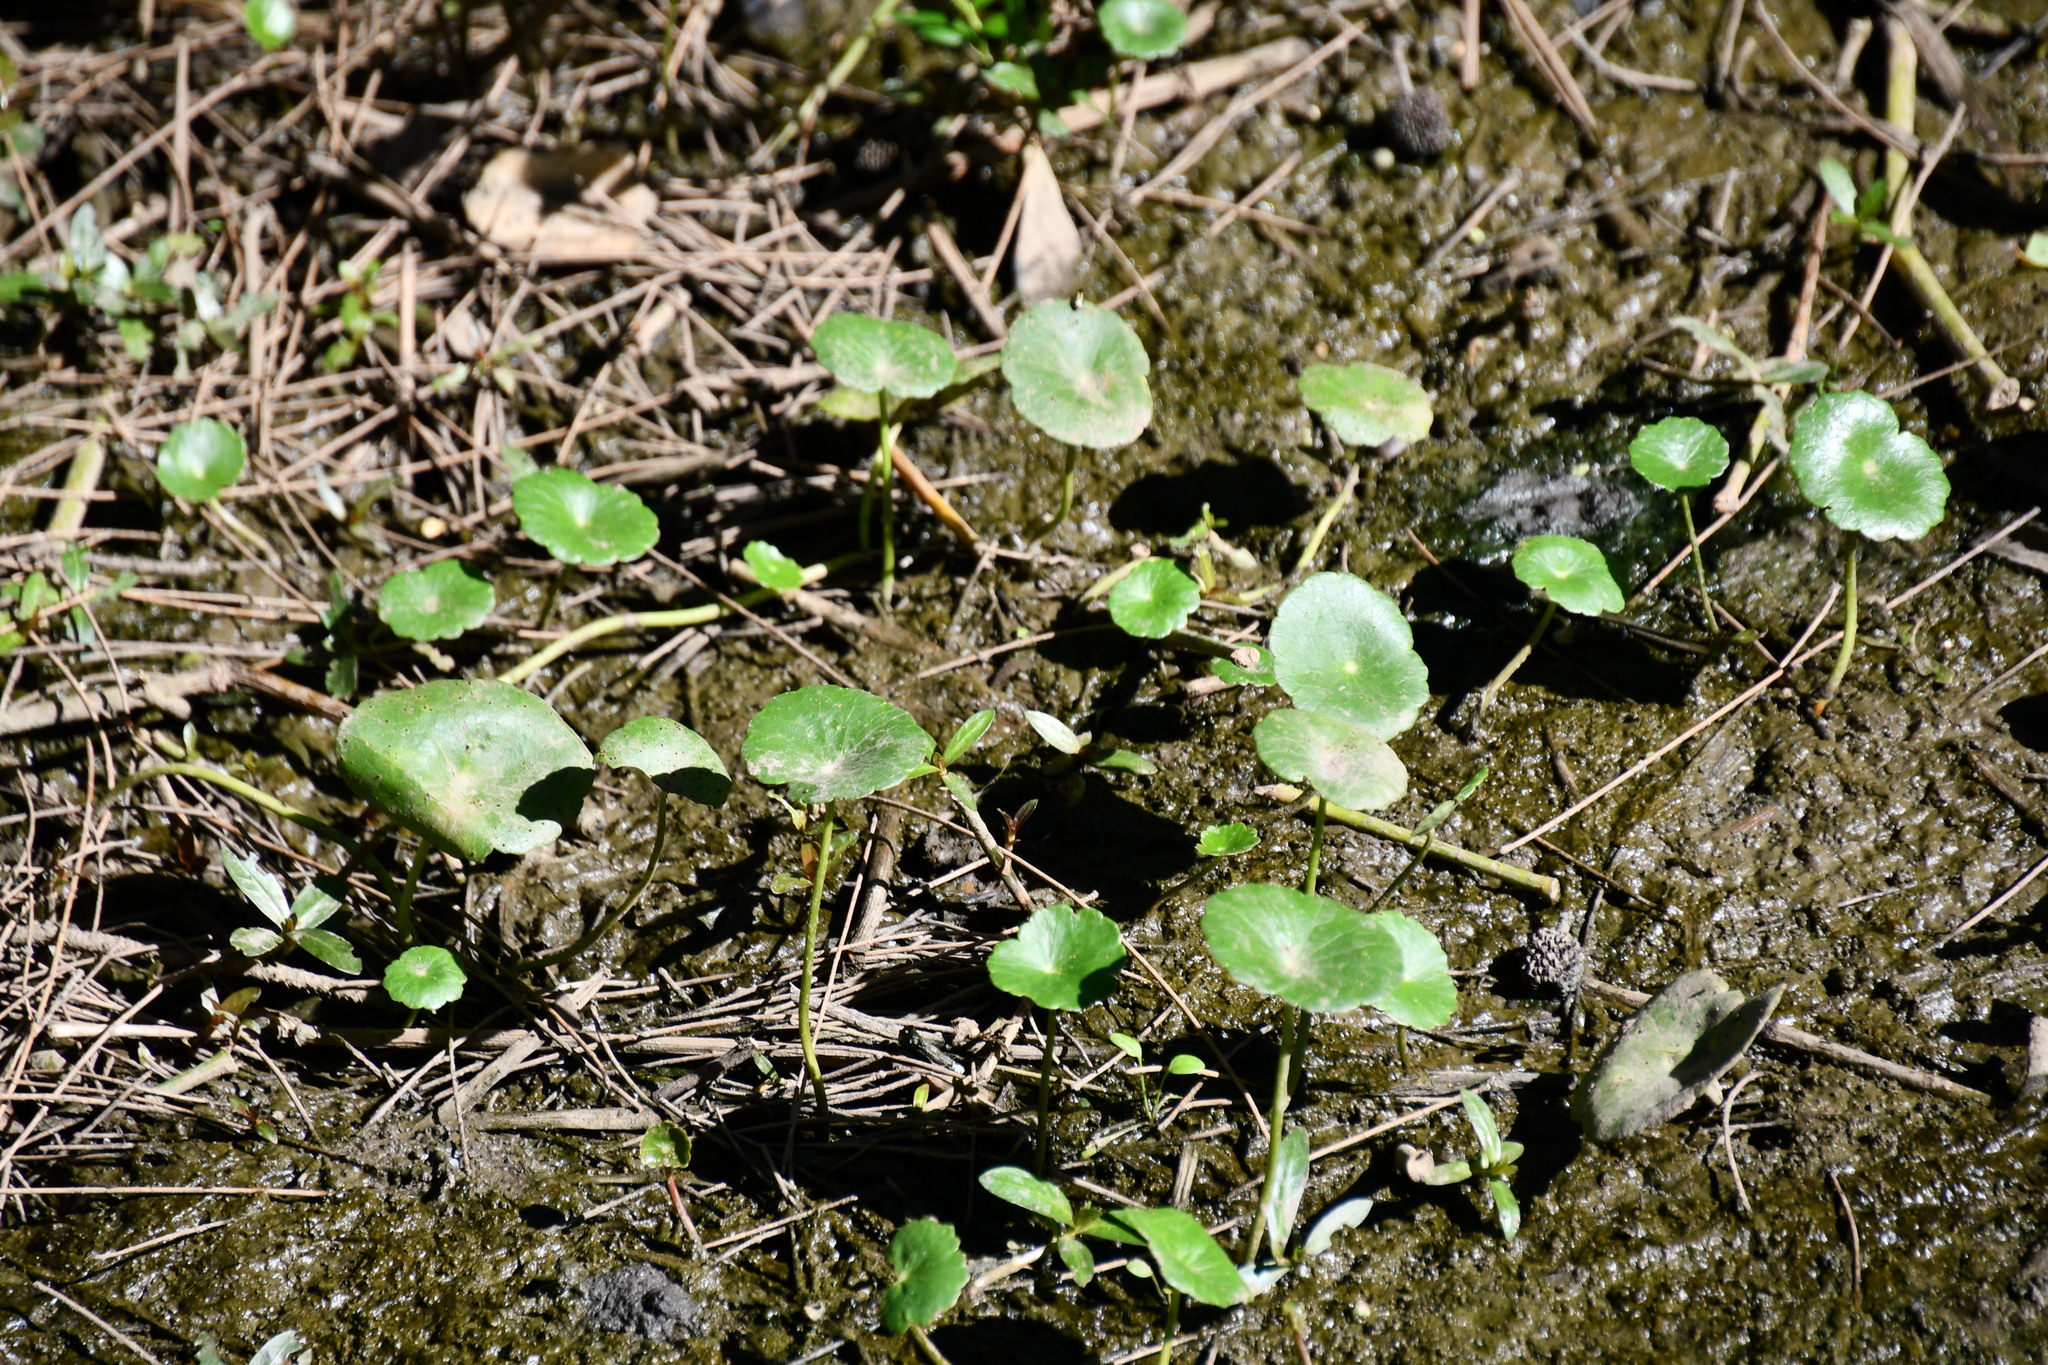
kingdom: Plantae
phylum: Tracheophyta
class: Magnoliopsida
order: Apiales
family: Araliaceae
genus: Hydrocotyle
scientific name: Hydrocotyle bonariensis
